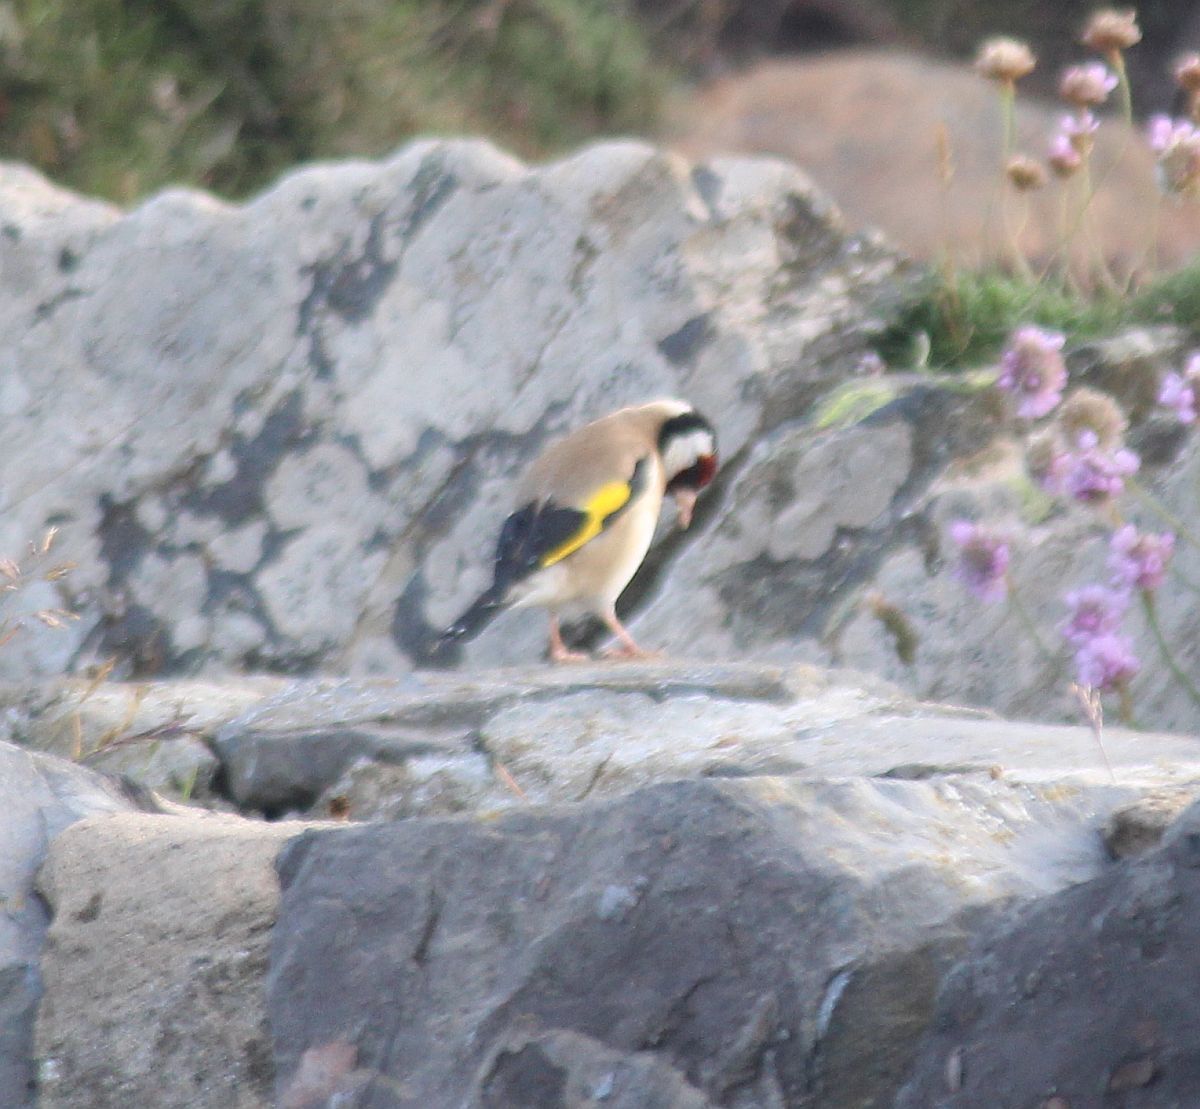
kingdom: Animalia
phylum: Chordata
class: Aves
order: Passeriformes
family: Fringillidae
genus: Carduelis
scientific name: Carduelis carduelis
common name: European goldfinch
